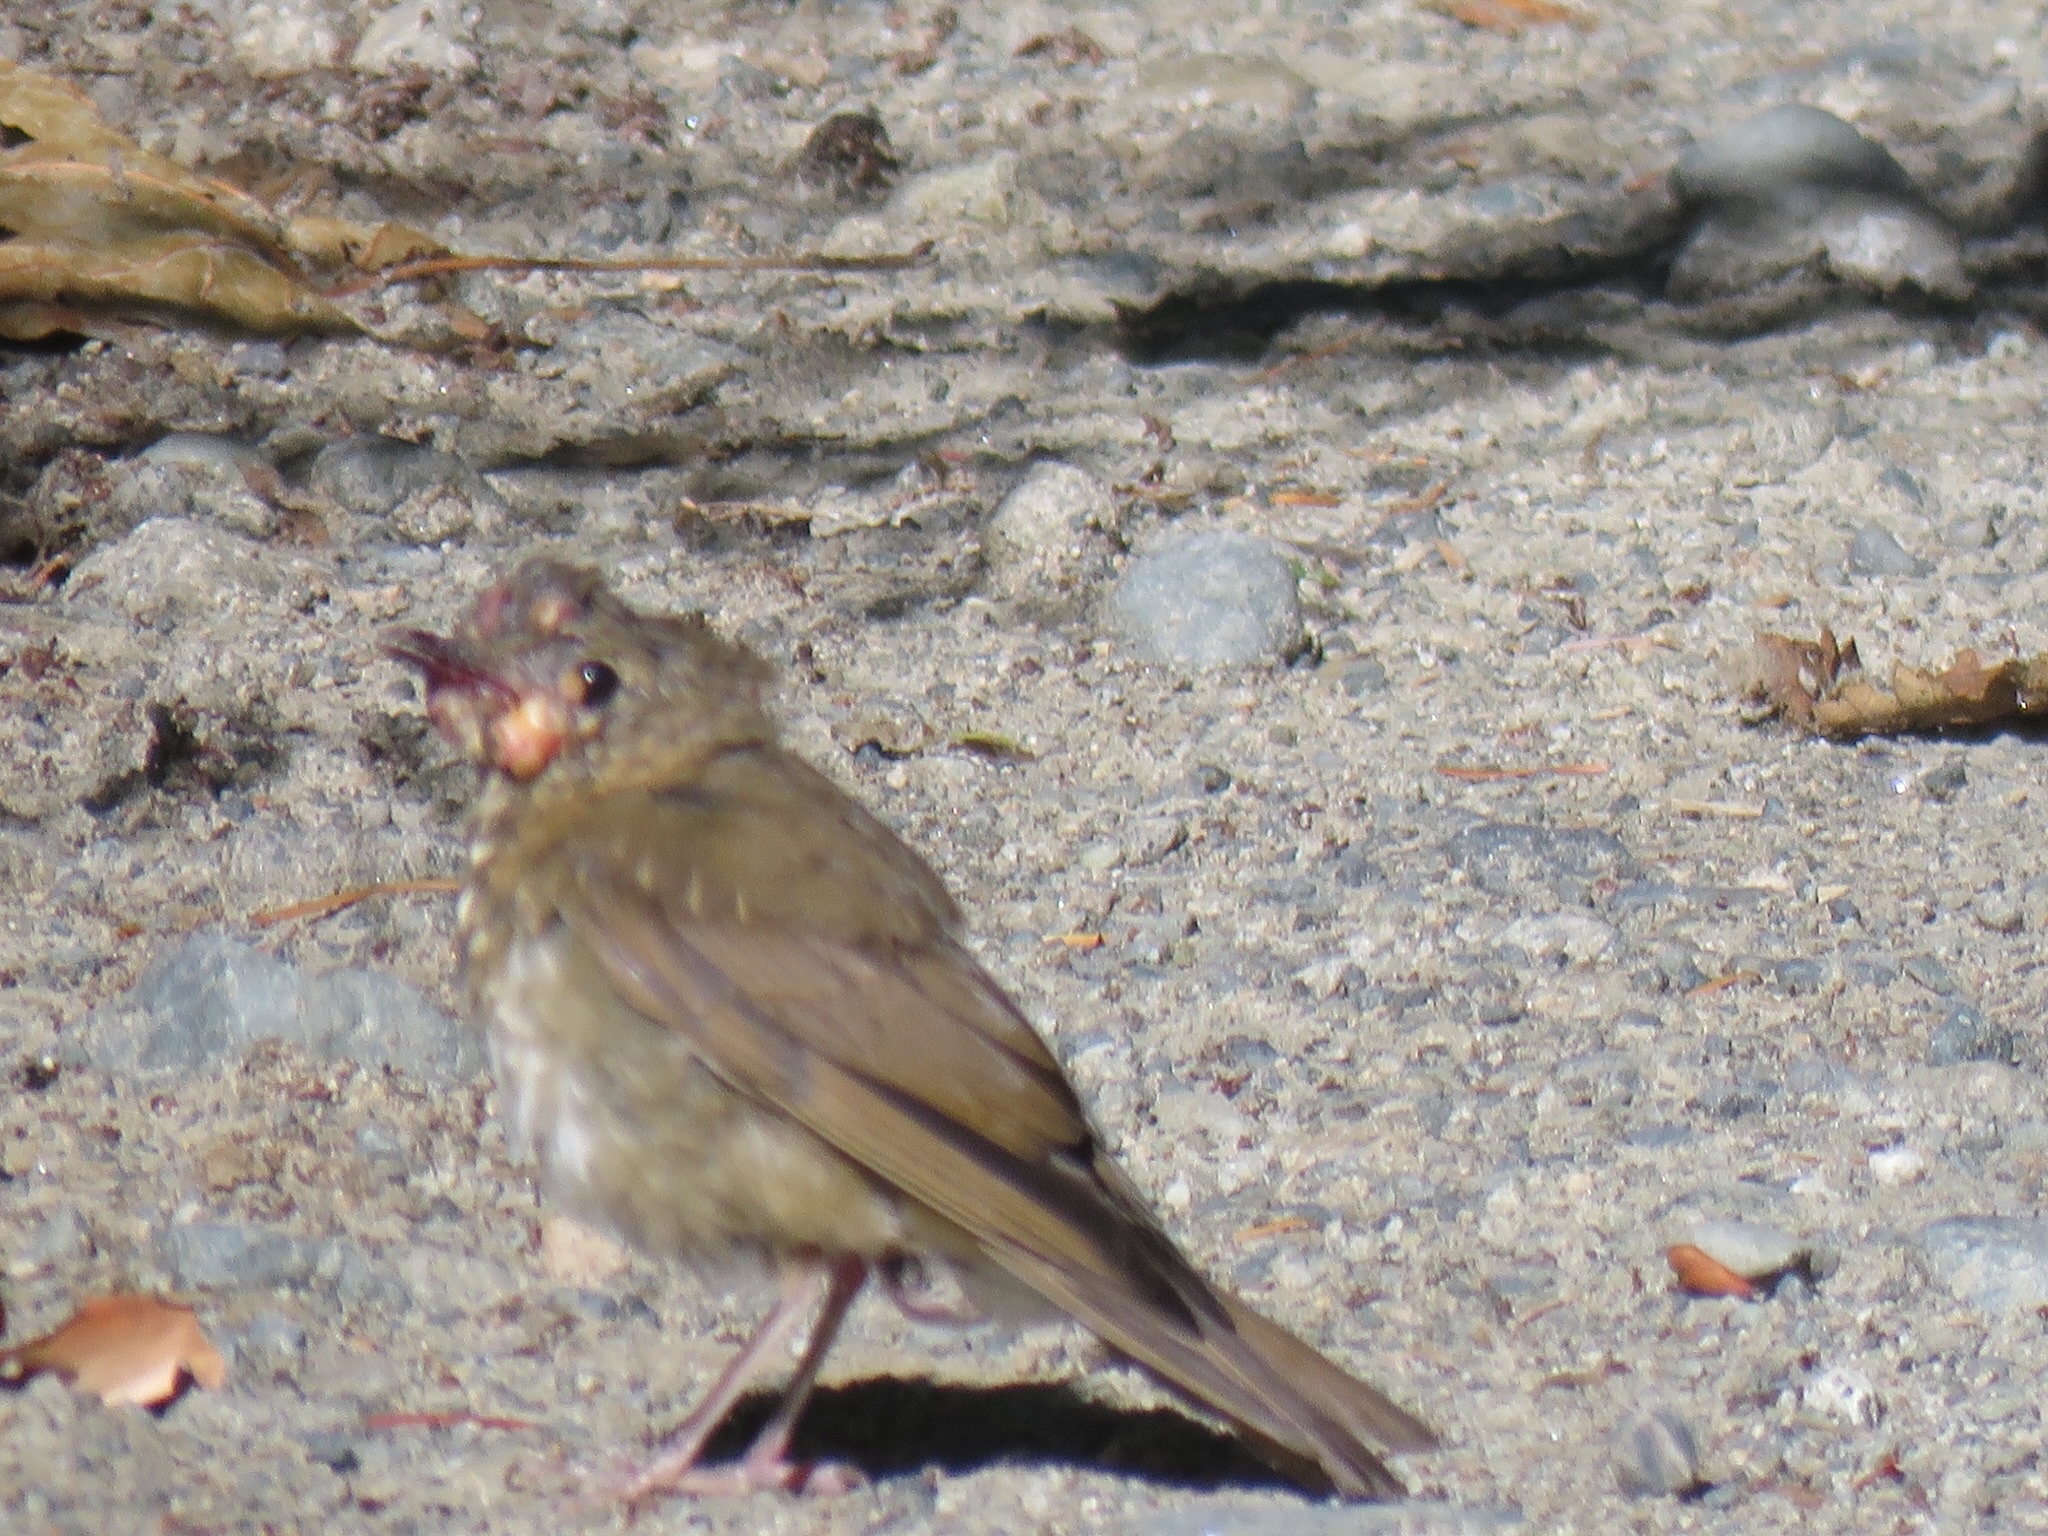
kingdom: Animalia
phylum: Chordata
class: Aves
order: Passeriformes
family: Turdidae
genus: Catharus
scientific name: Catharus ustulatus
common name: Swainson's thrush
